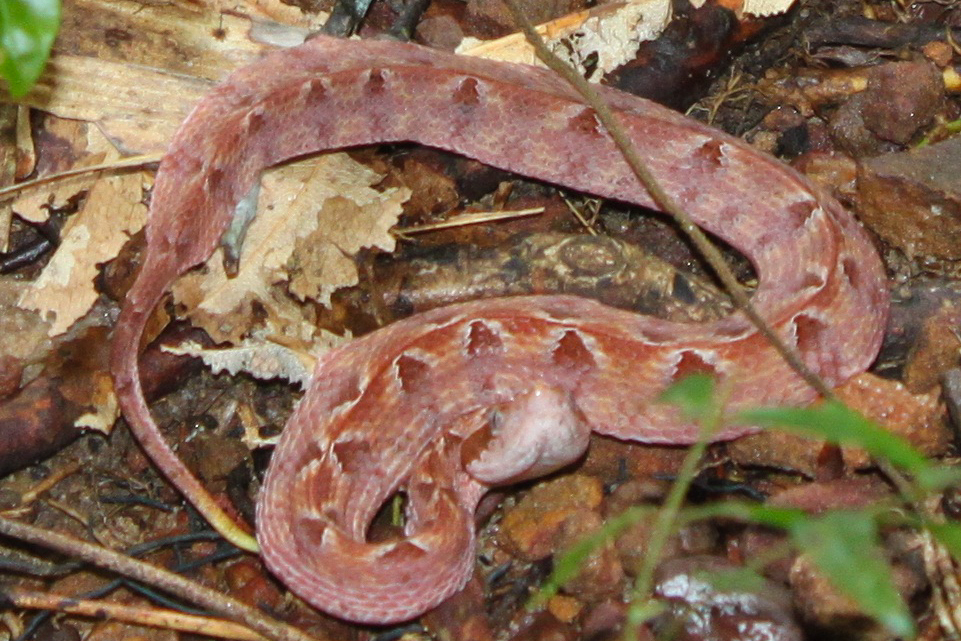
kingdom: Animalia
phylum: Chordata
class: Squamata
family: Viperidae
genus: Calloselasma
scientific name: Calloselasma rhodostoma
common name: Malayan pit viper
